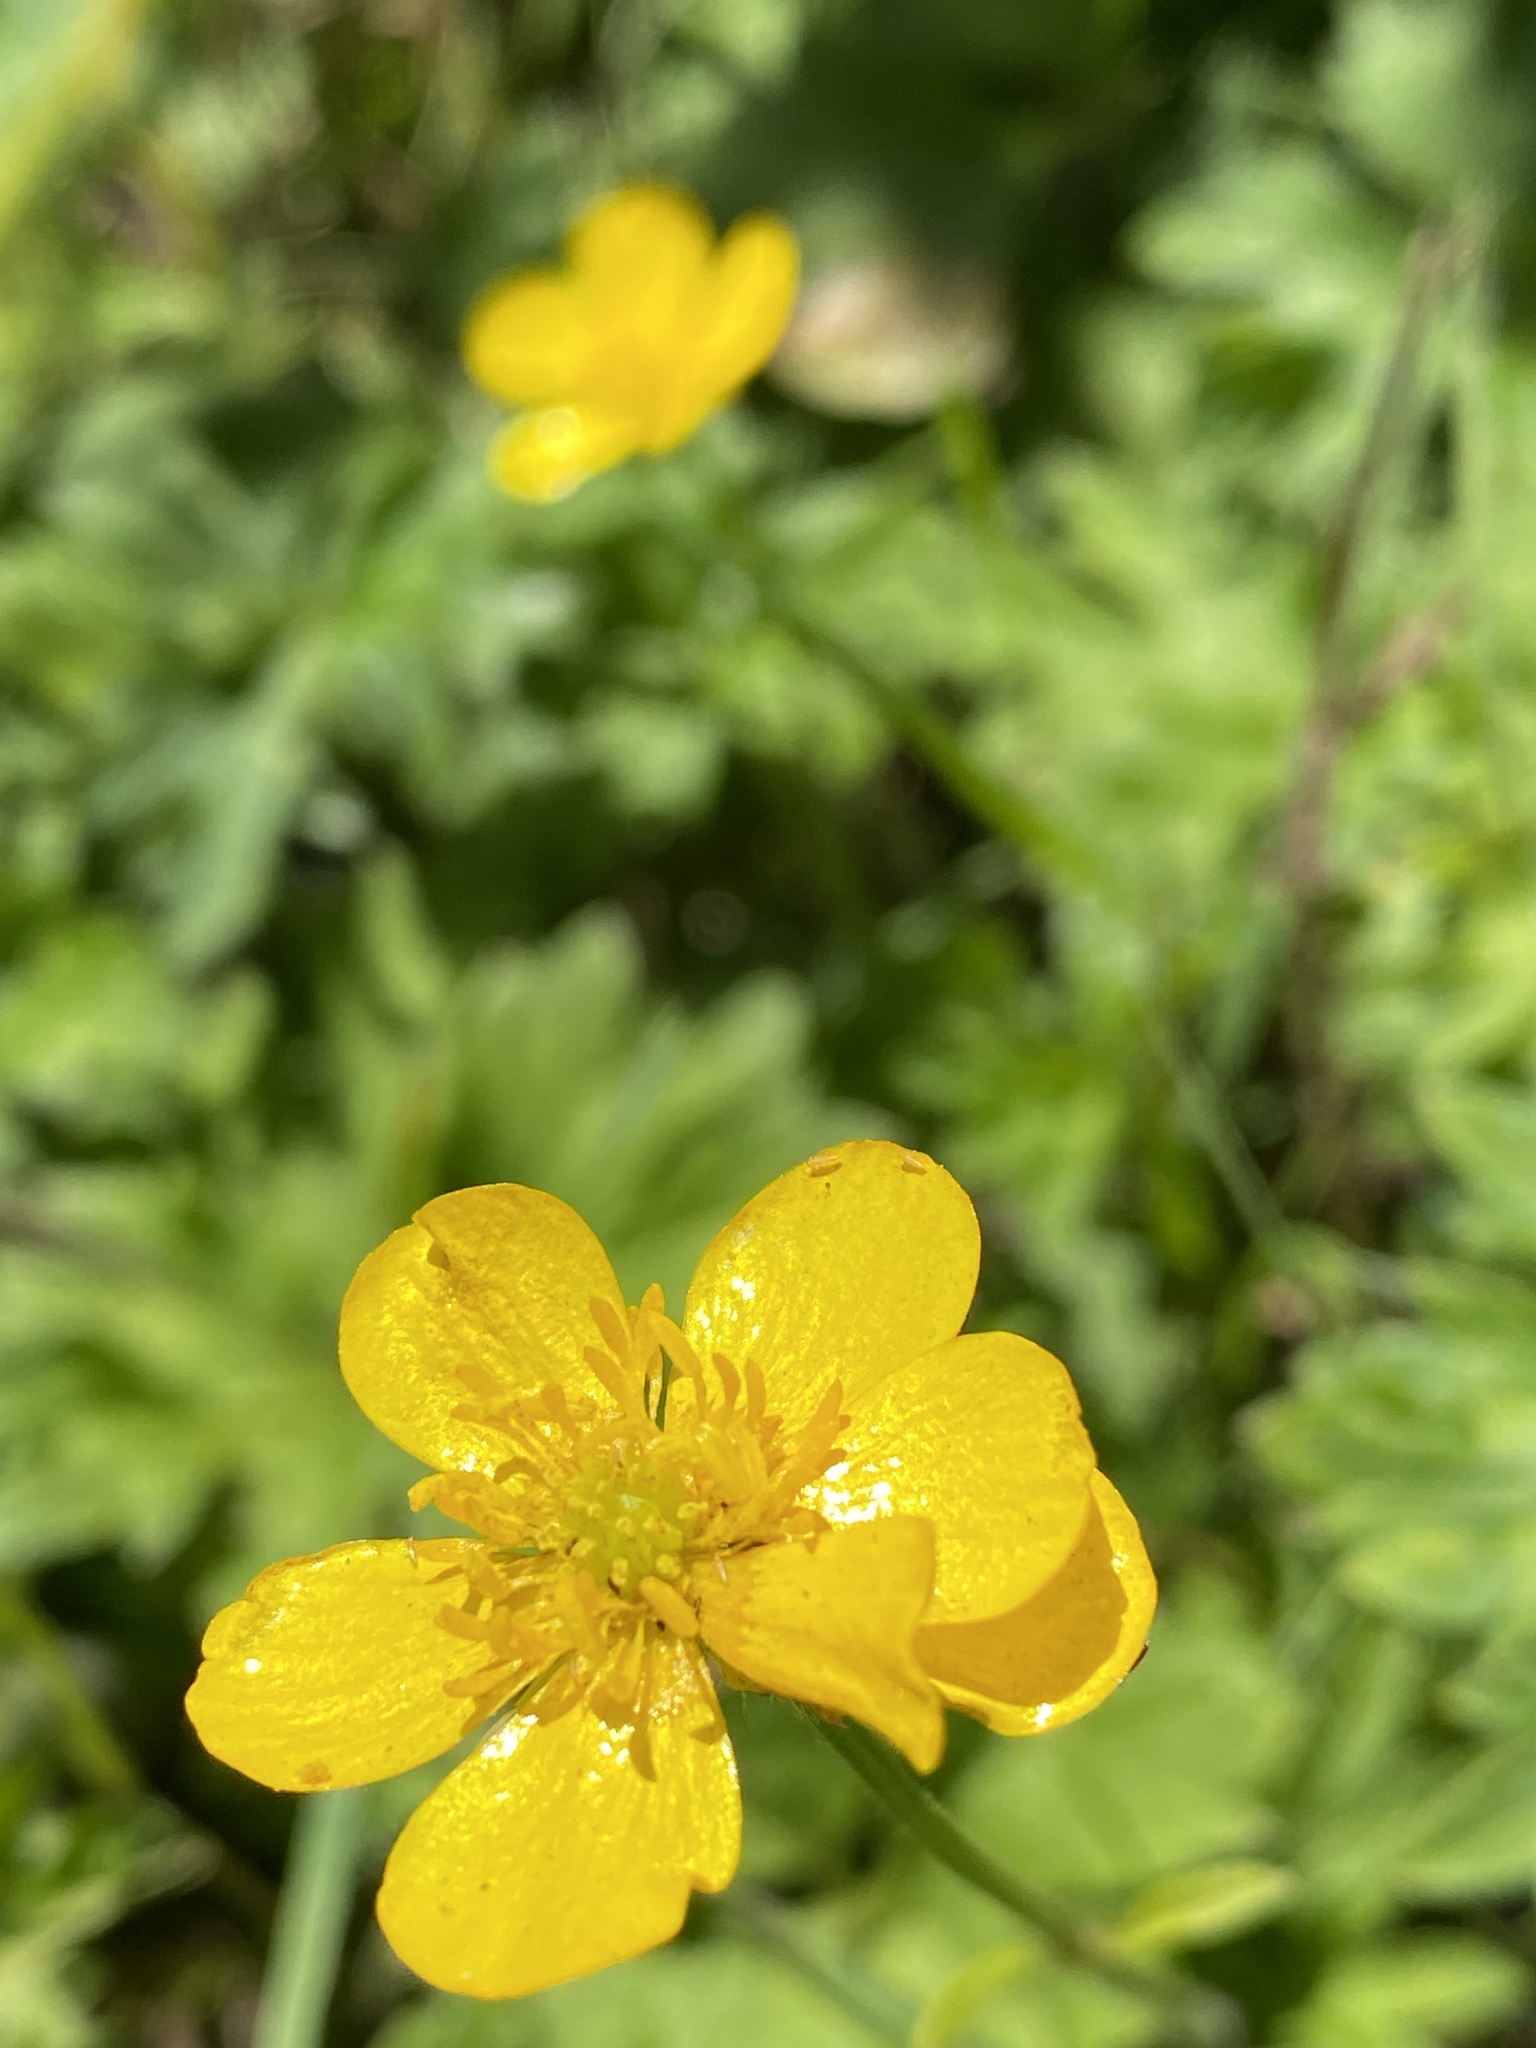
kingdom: Plantae
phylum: Tracheophyta
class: Magnoliopsida
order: Ranunculales
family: Ranunculaceae
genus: Ranunculus
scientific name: Ranunculus repens
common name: Creeping buttercup
